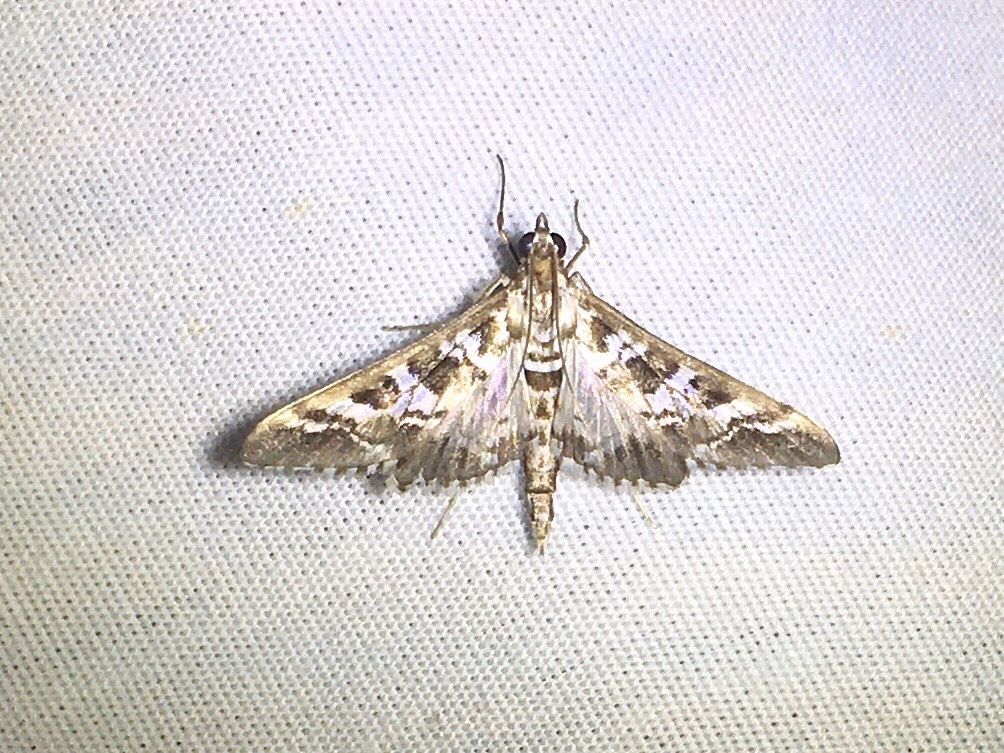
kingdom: Animalia
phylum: Arthropoda
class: Insecta
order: Lepidoptera
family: Crambidae
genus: Epipagis
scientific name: Epipagis forsythae
